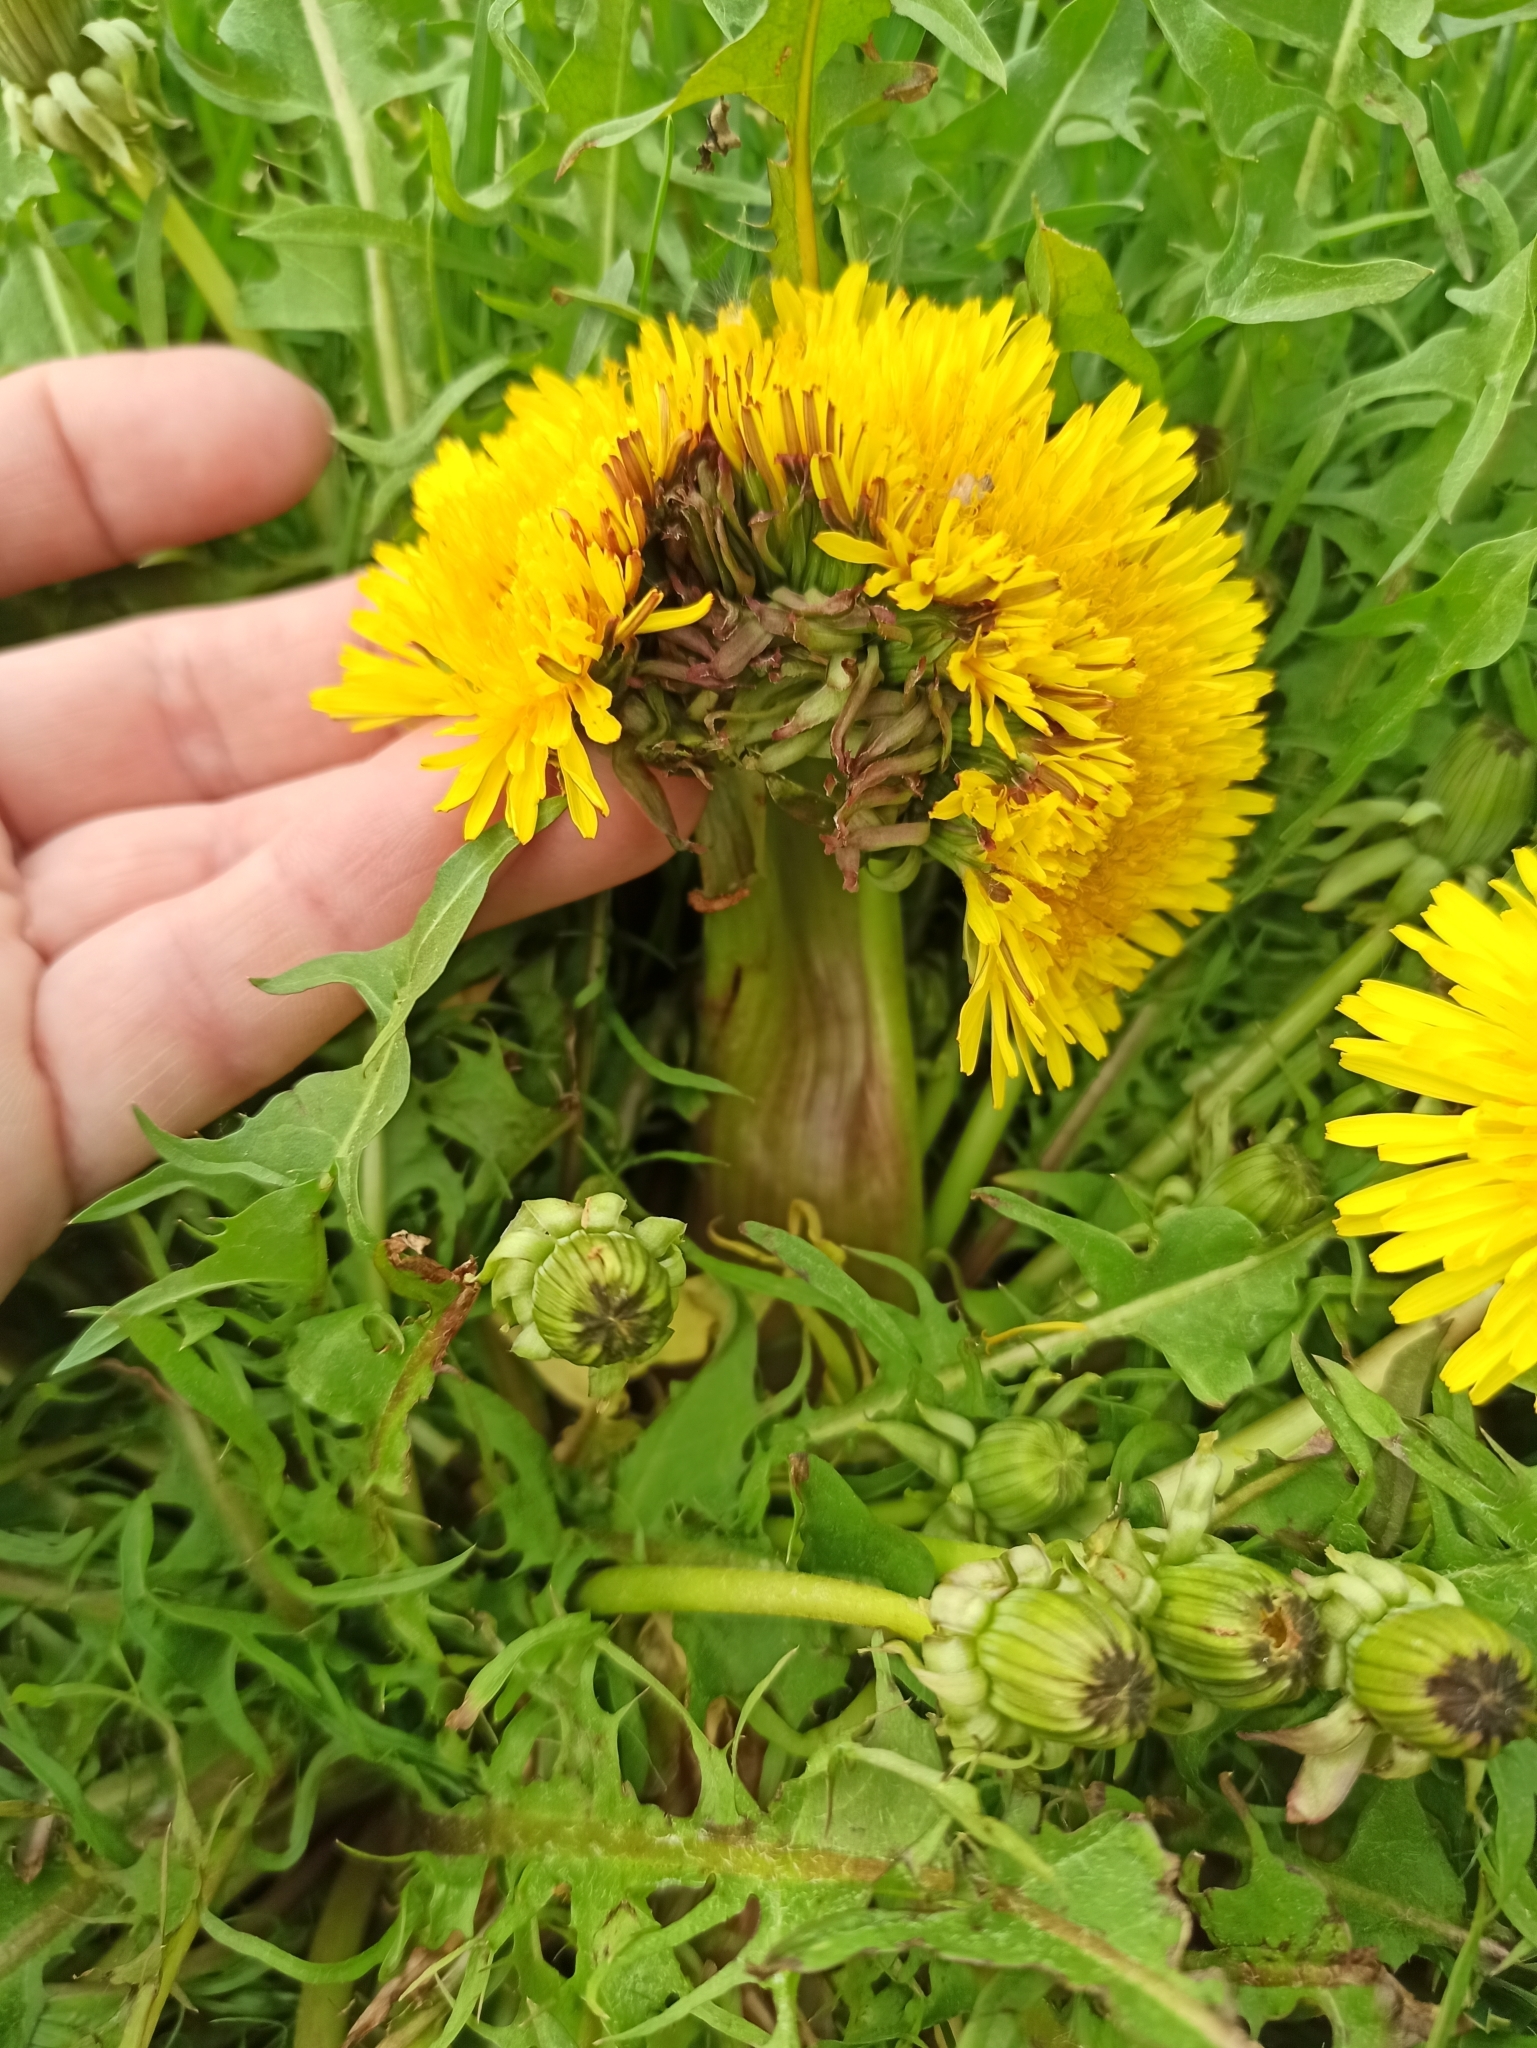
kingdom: Plantae
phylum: Tracheophyta
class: Magnoliopsida
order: Asterales
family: Asteraceae
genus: Taraxacum
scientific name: Taraxacum officinale
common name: Common dandelion
